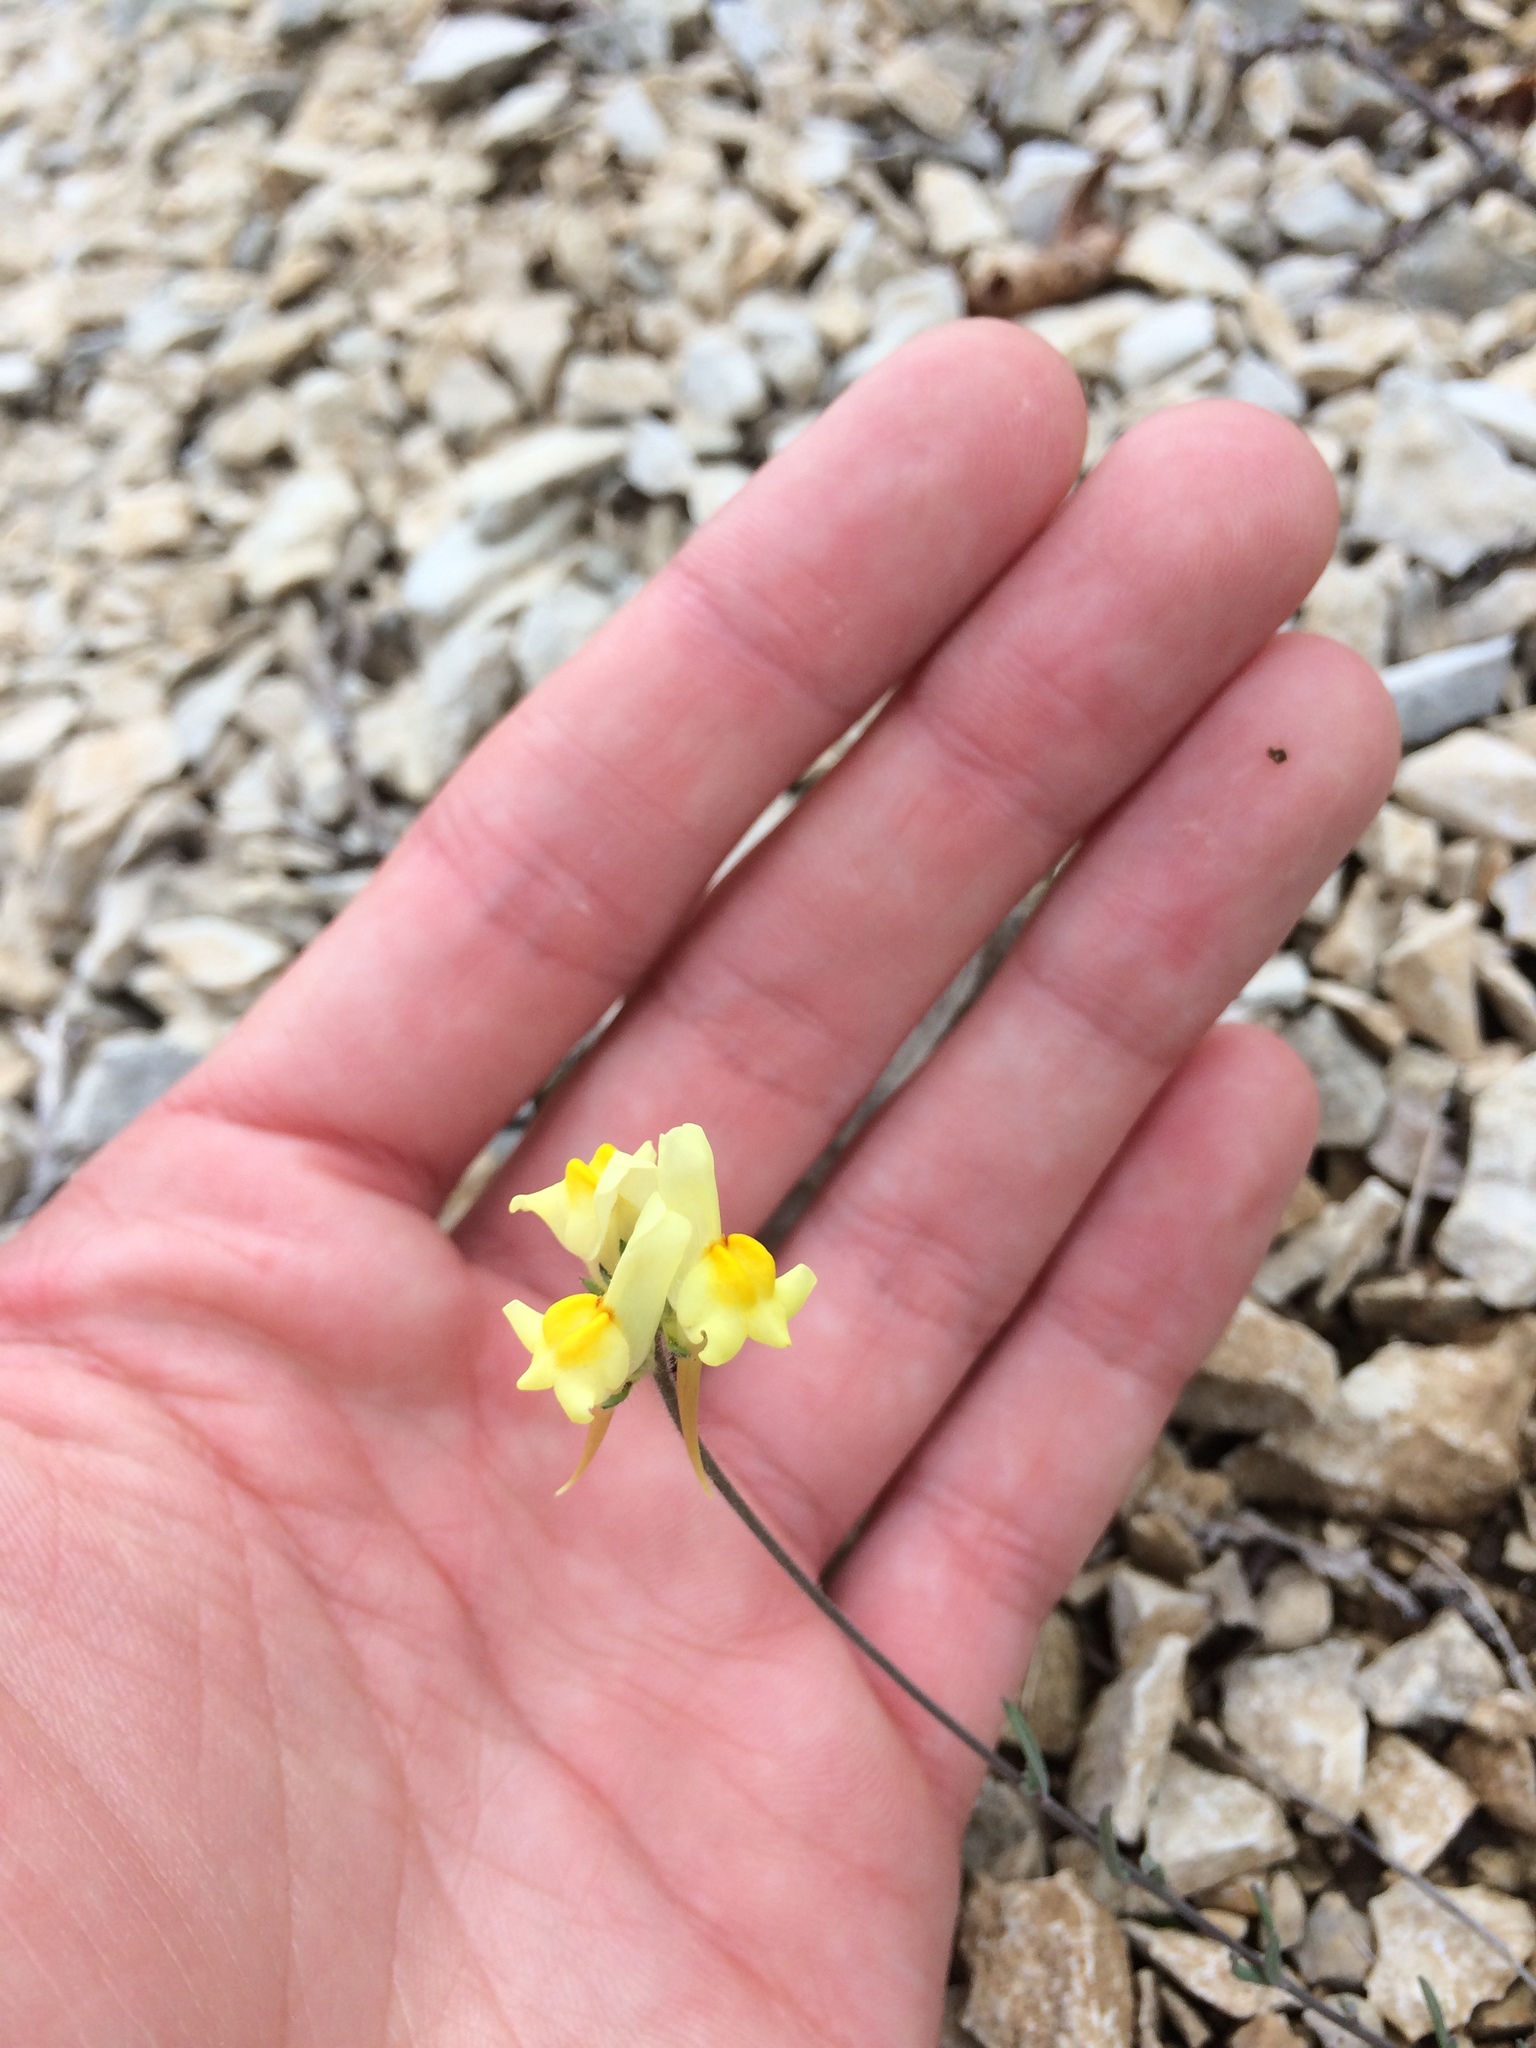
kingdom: Plantae
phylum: Tracheophyta
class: Magnoliopsida
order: Lamiales
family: Plantaginaceae
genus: Linaria
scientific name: Linaria vulgaris
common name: Butter and eggs
